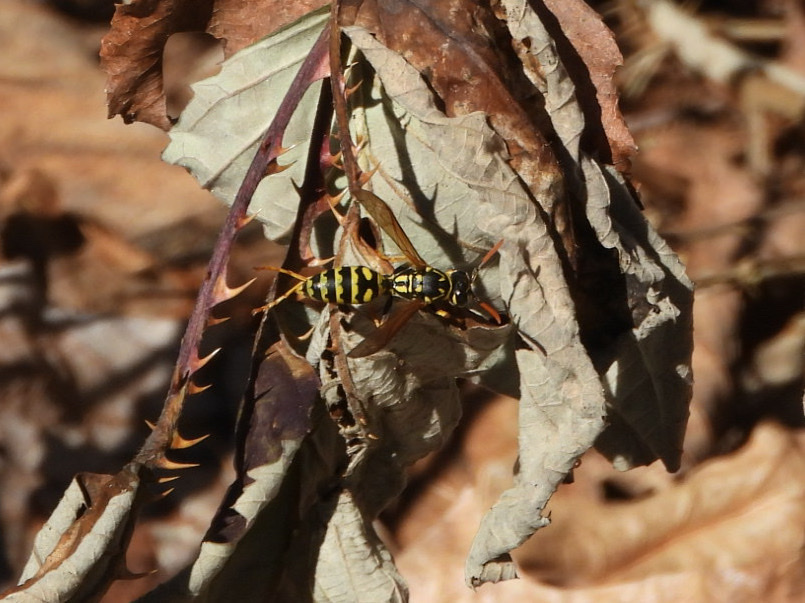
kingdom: Animalia
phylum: Arthropoda
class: Insecta
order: Hymenoptera
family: Eumenidae
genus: Polistes
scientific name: Polistes dominula
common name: Paper wasp
